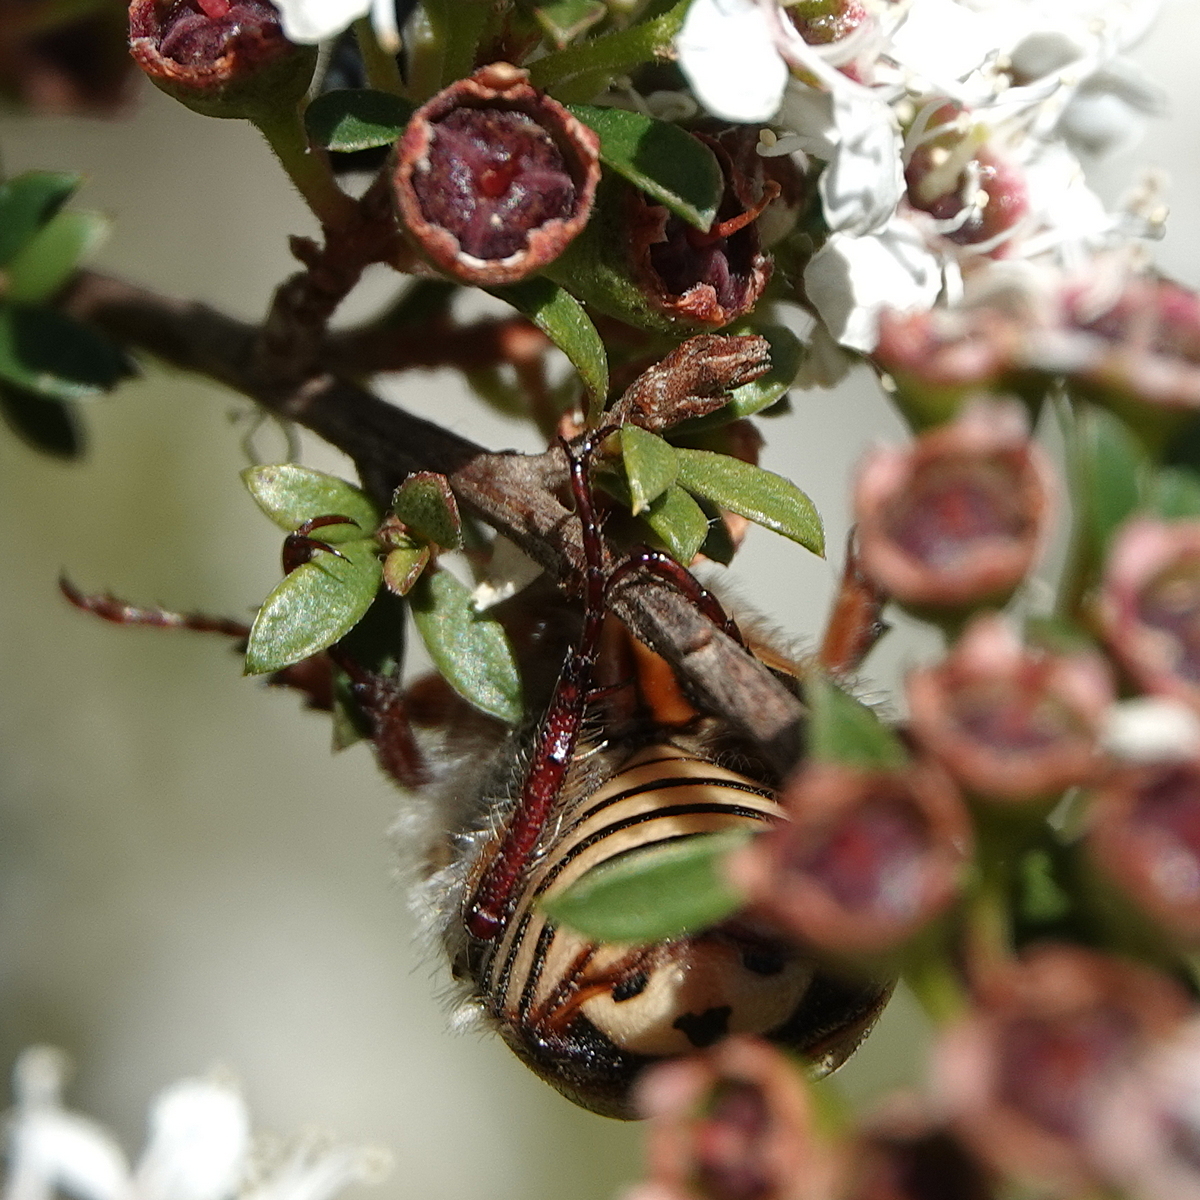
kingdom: Animalia
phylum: Arthropoda
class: Insecta
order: Coleoptera
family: Scarabaeidae
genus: Neorrhina
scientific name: Neorrhina punctatum
